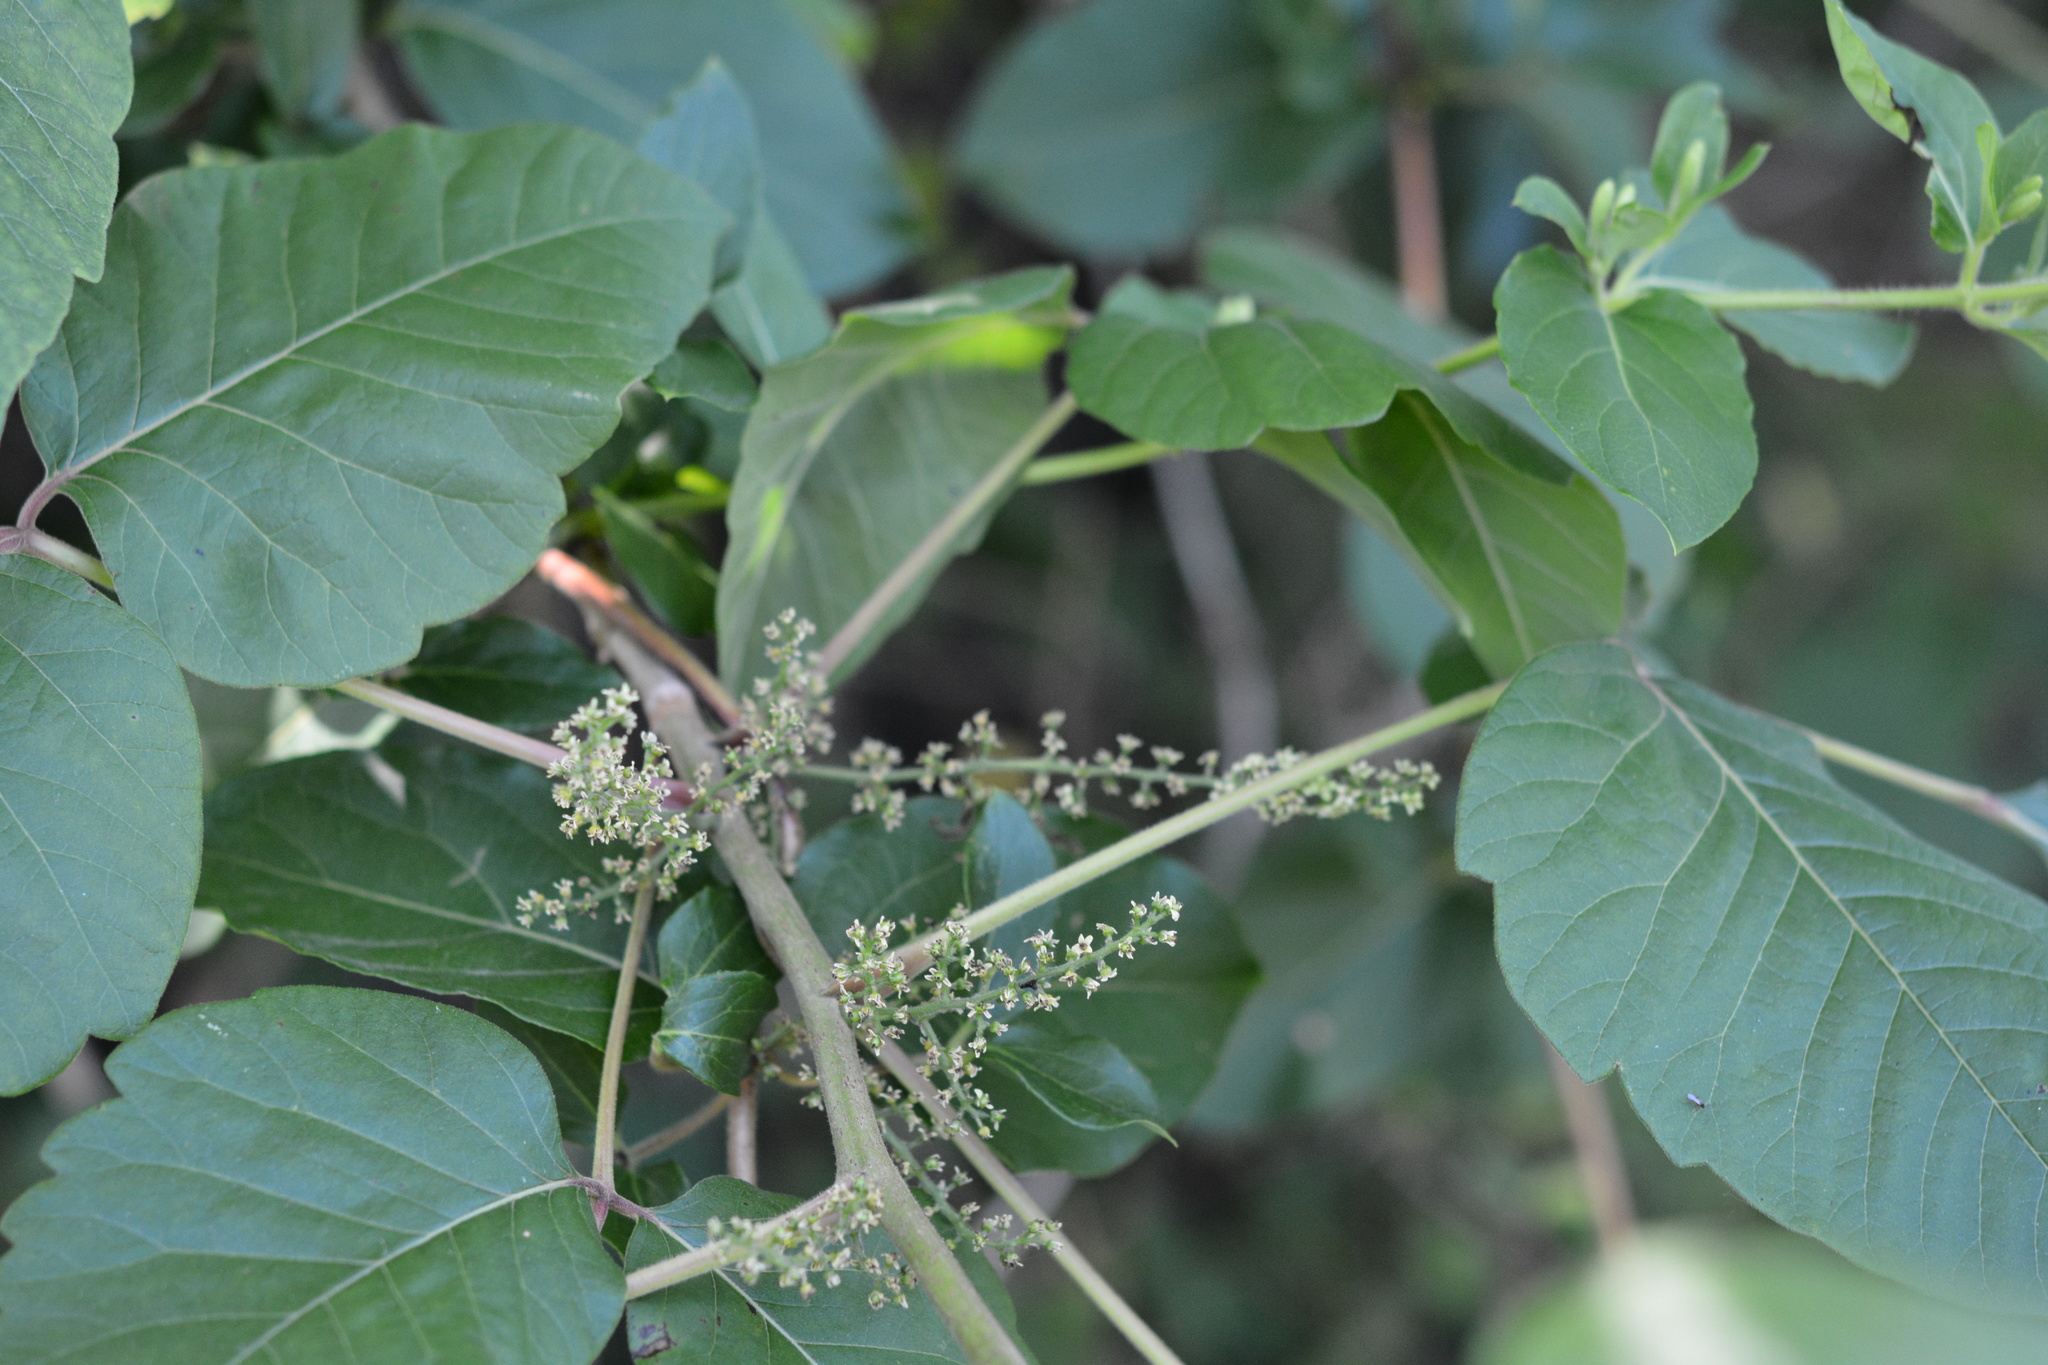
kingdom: Plantae
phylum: Tracheophyta
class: Magnoliopsida
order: Sapindales
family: Anacardiaceae
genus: Toxicodendron
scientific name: Toxicodendron radicans
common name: Poison ivy
